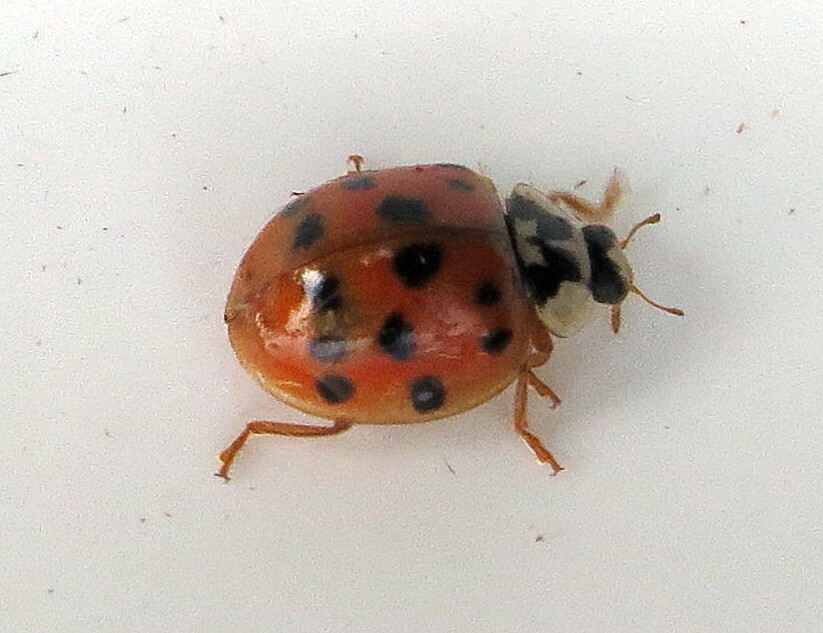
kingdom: Animalia
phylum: Arthropoda
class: Insecta
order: Coleoptera
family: Coccinellidae
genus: Harmonia
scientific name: Harmonia axyridis
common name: Harlequin ladybird
